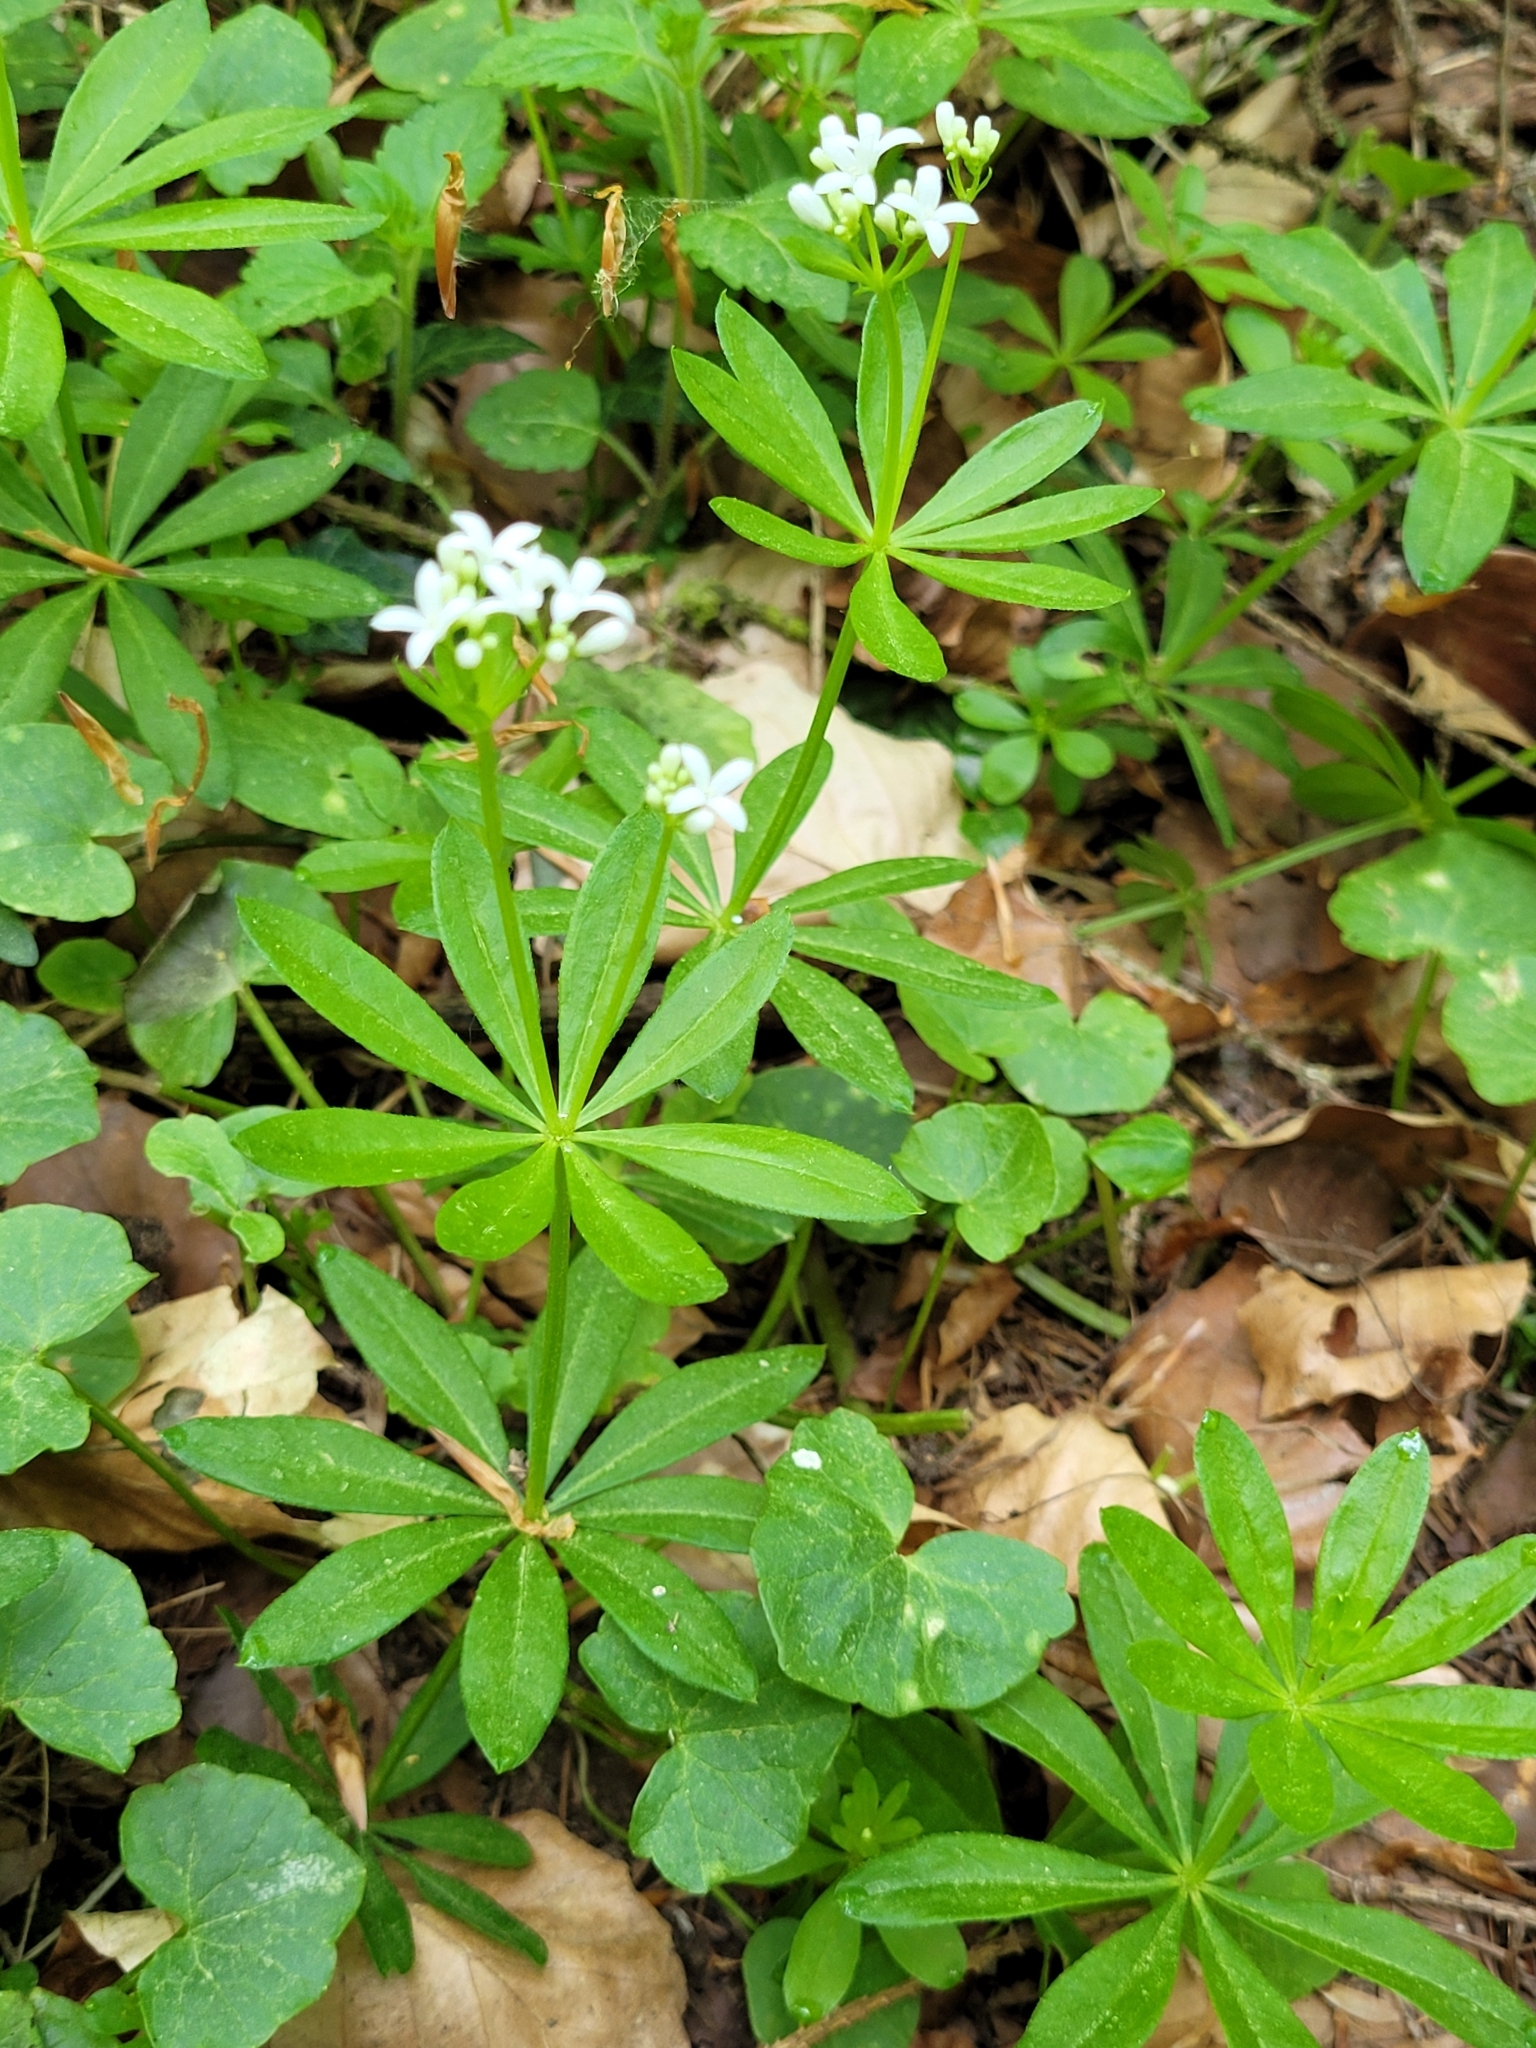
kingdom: Plantae
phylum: Tracheophyta
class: Magnoliopsida
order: Gentianales
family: Rubiaceae
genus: Galium
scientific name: Galium odoratum
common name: Sweet woodruff
